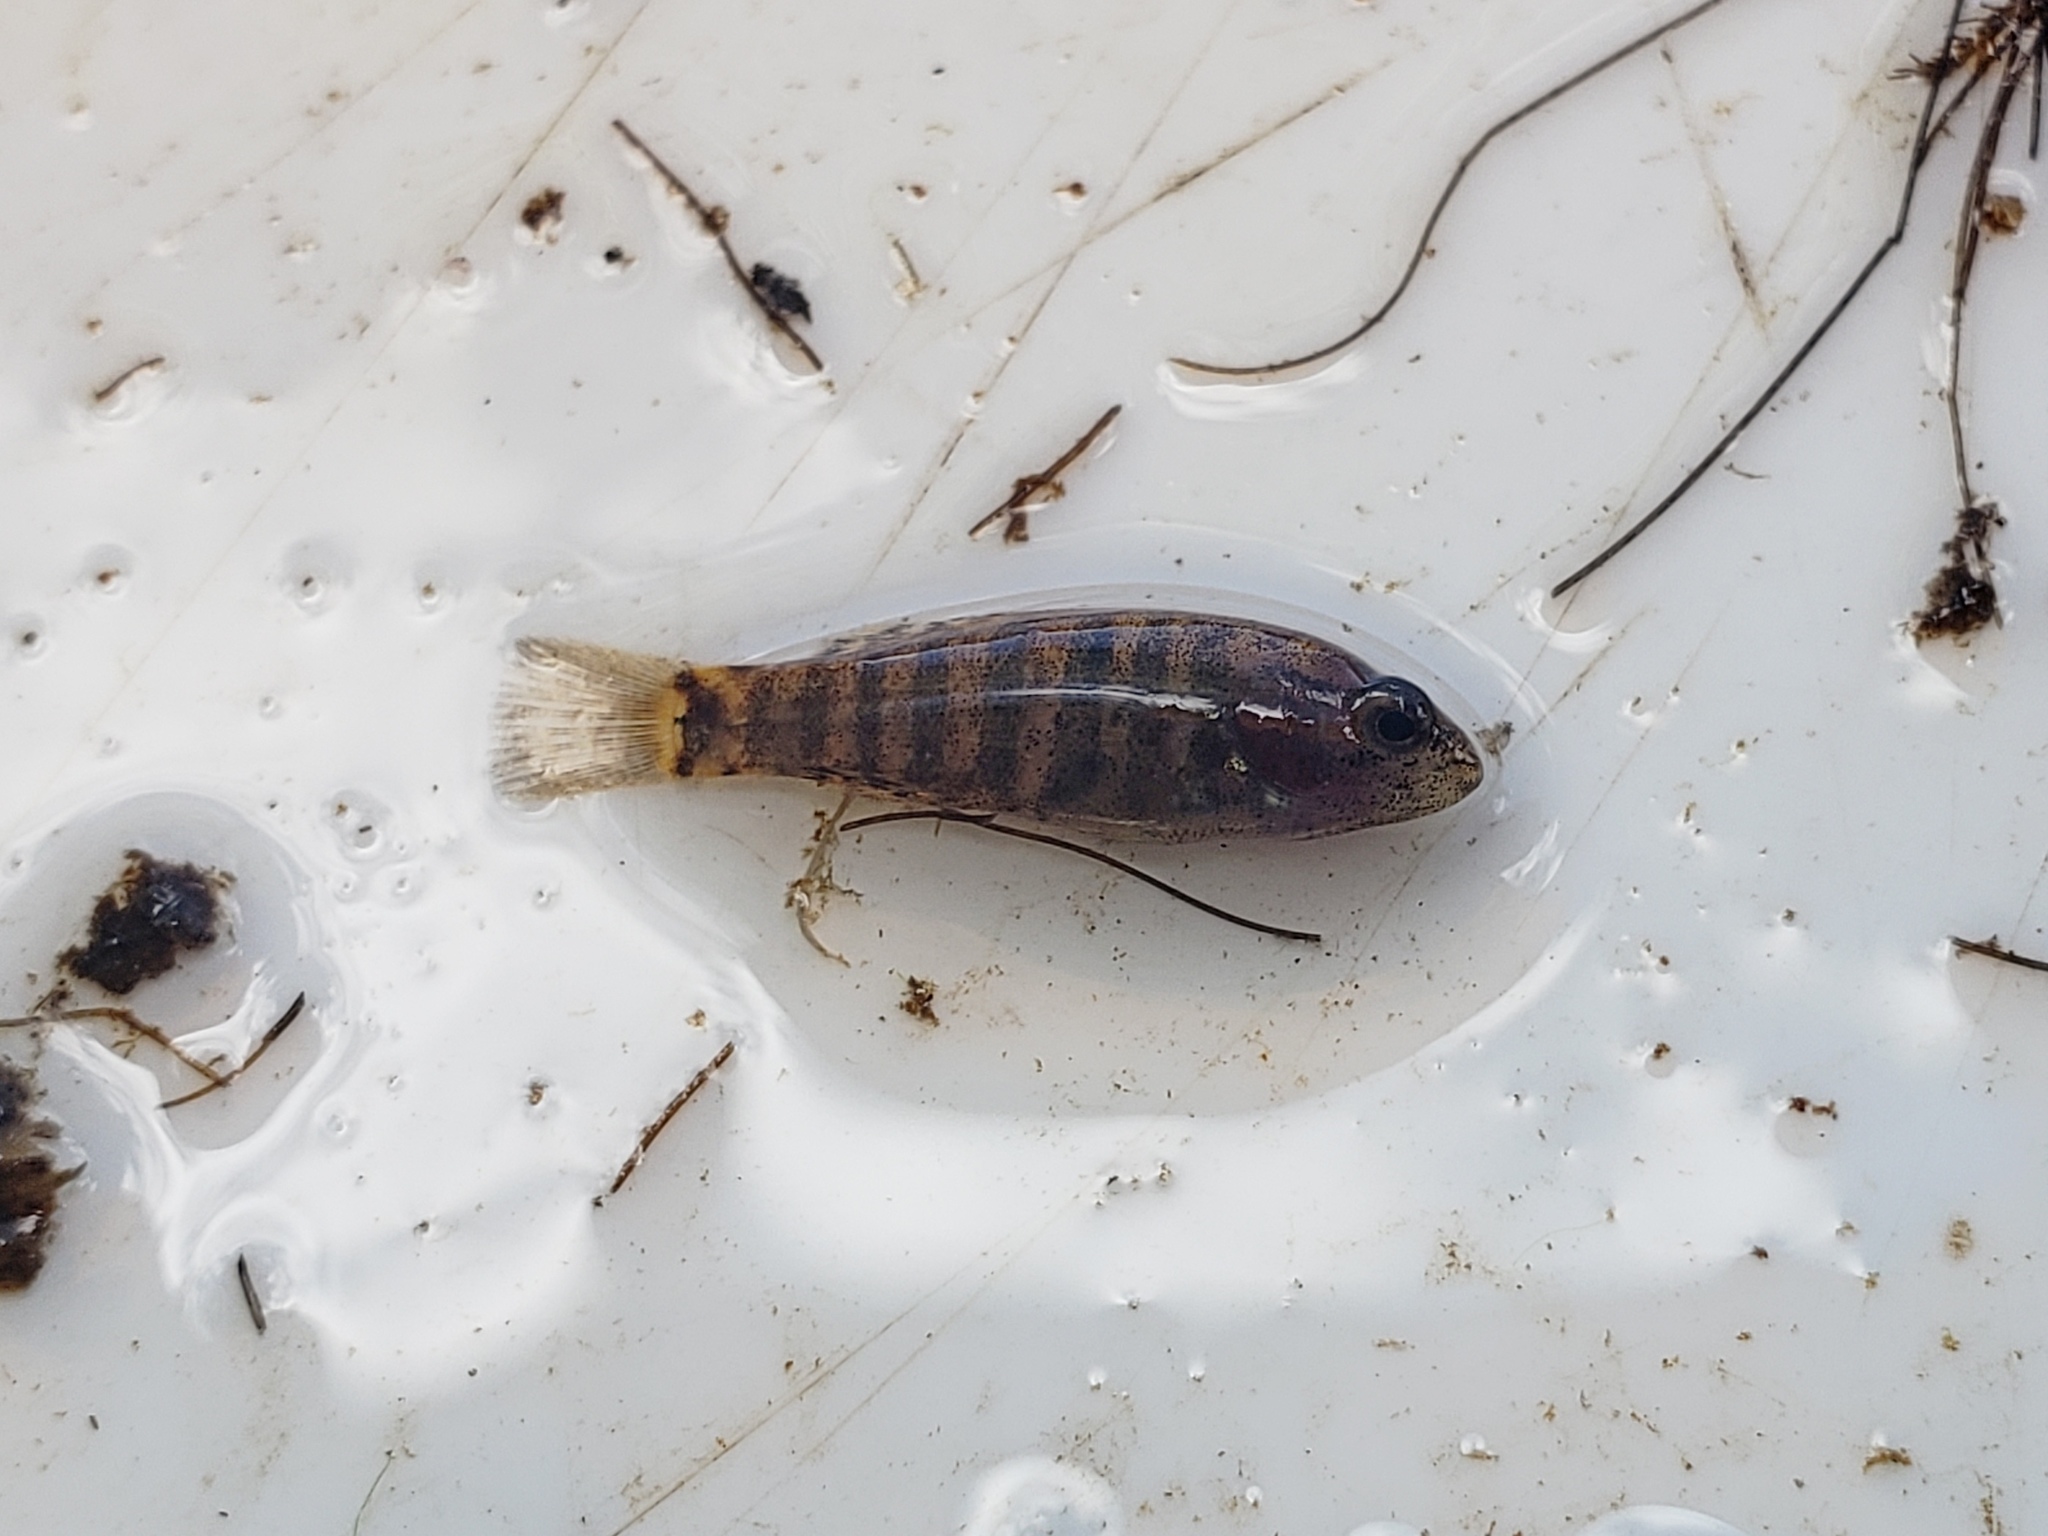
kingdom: Animalia
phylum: Chordata
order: Perciformes
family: Elassomatidae
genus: Elassoma
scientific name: Elassoma zonatum
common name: Banded pygmy sunfish
